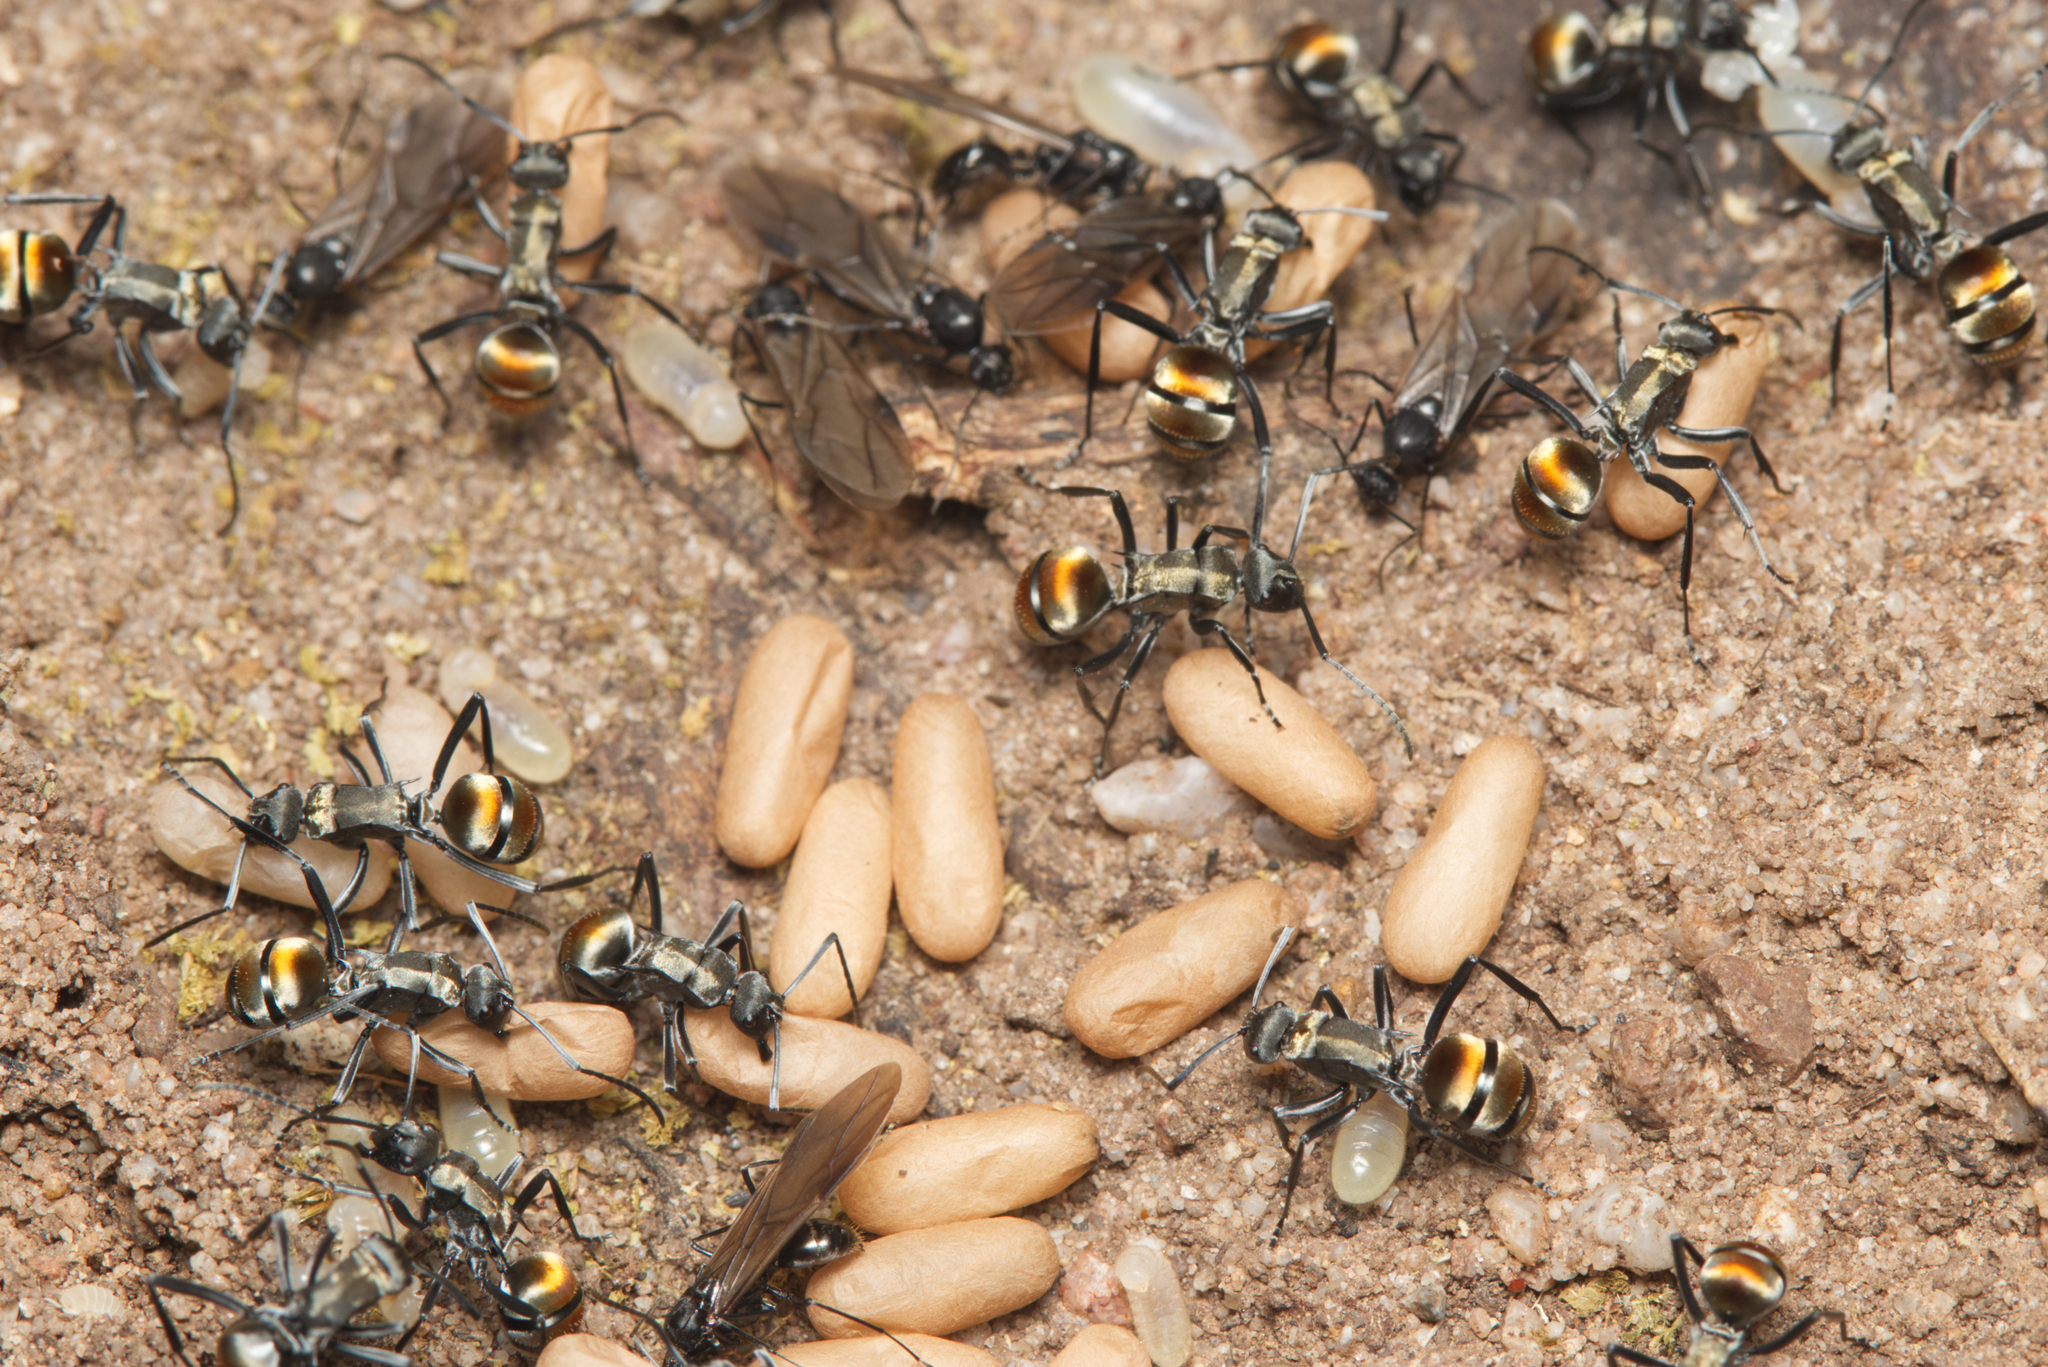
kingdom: Animalia
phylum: Arthropoda
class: Insecta
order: Hymenoptera
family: Formicidae
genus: Polyrhachis
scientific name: Polyrhachis ammon
